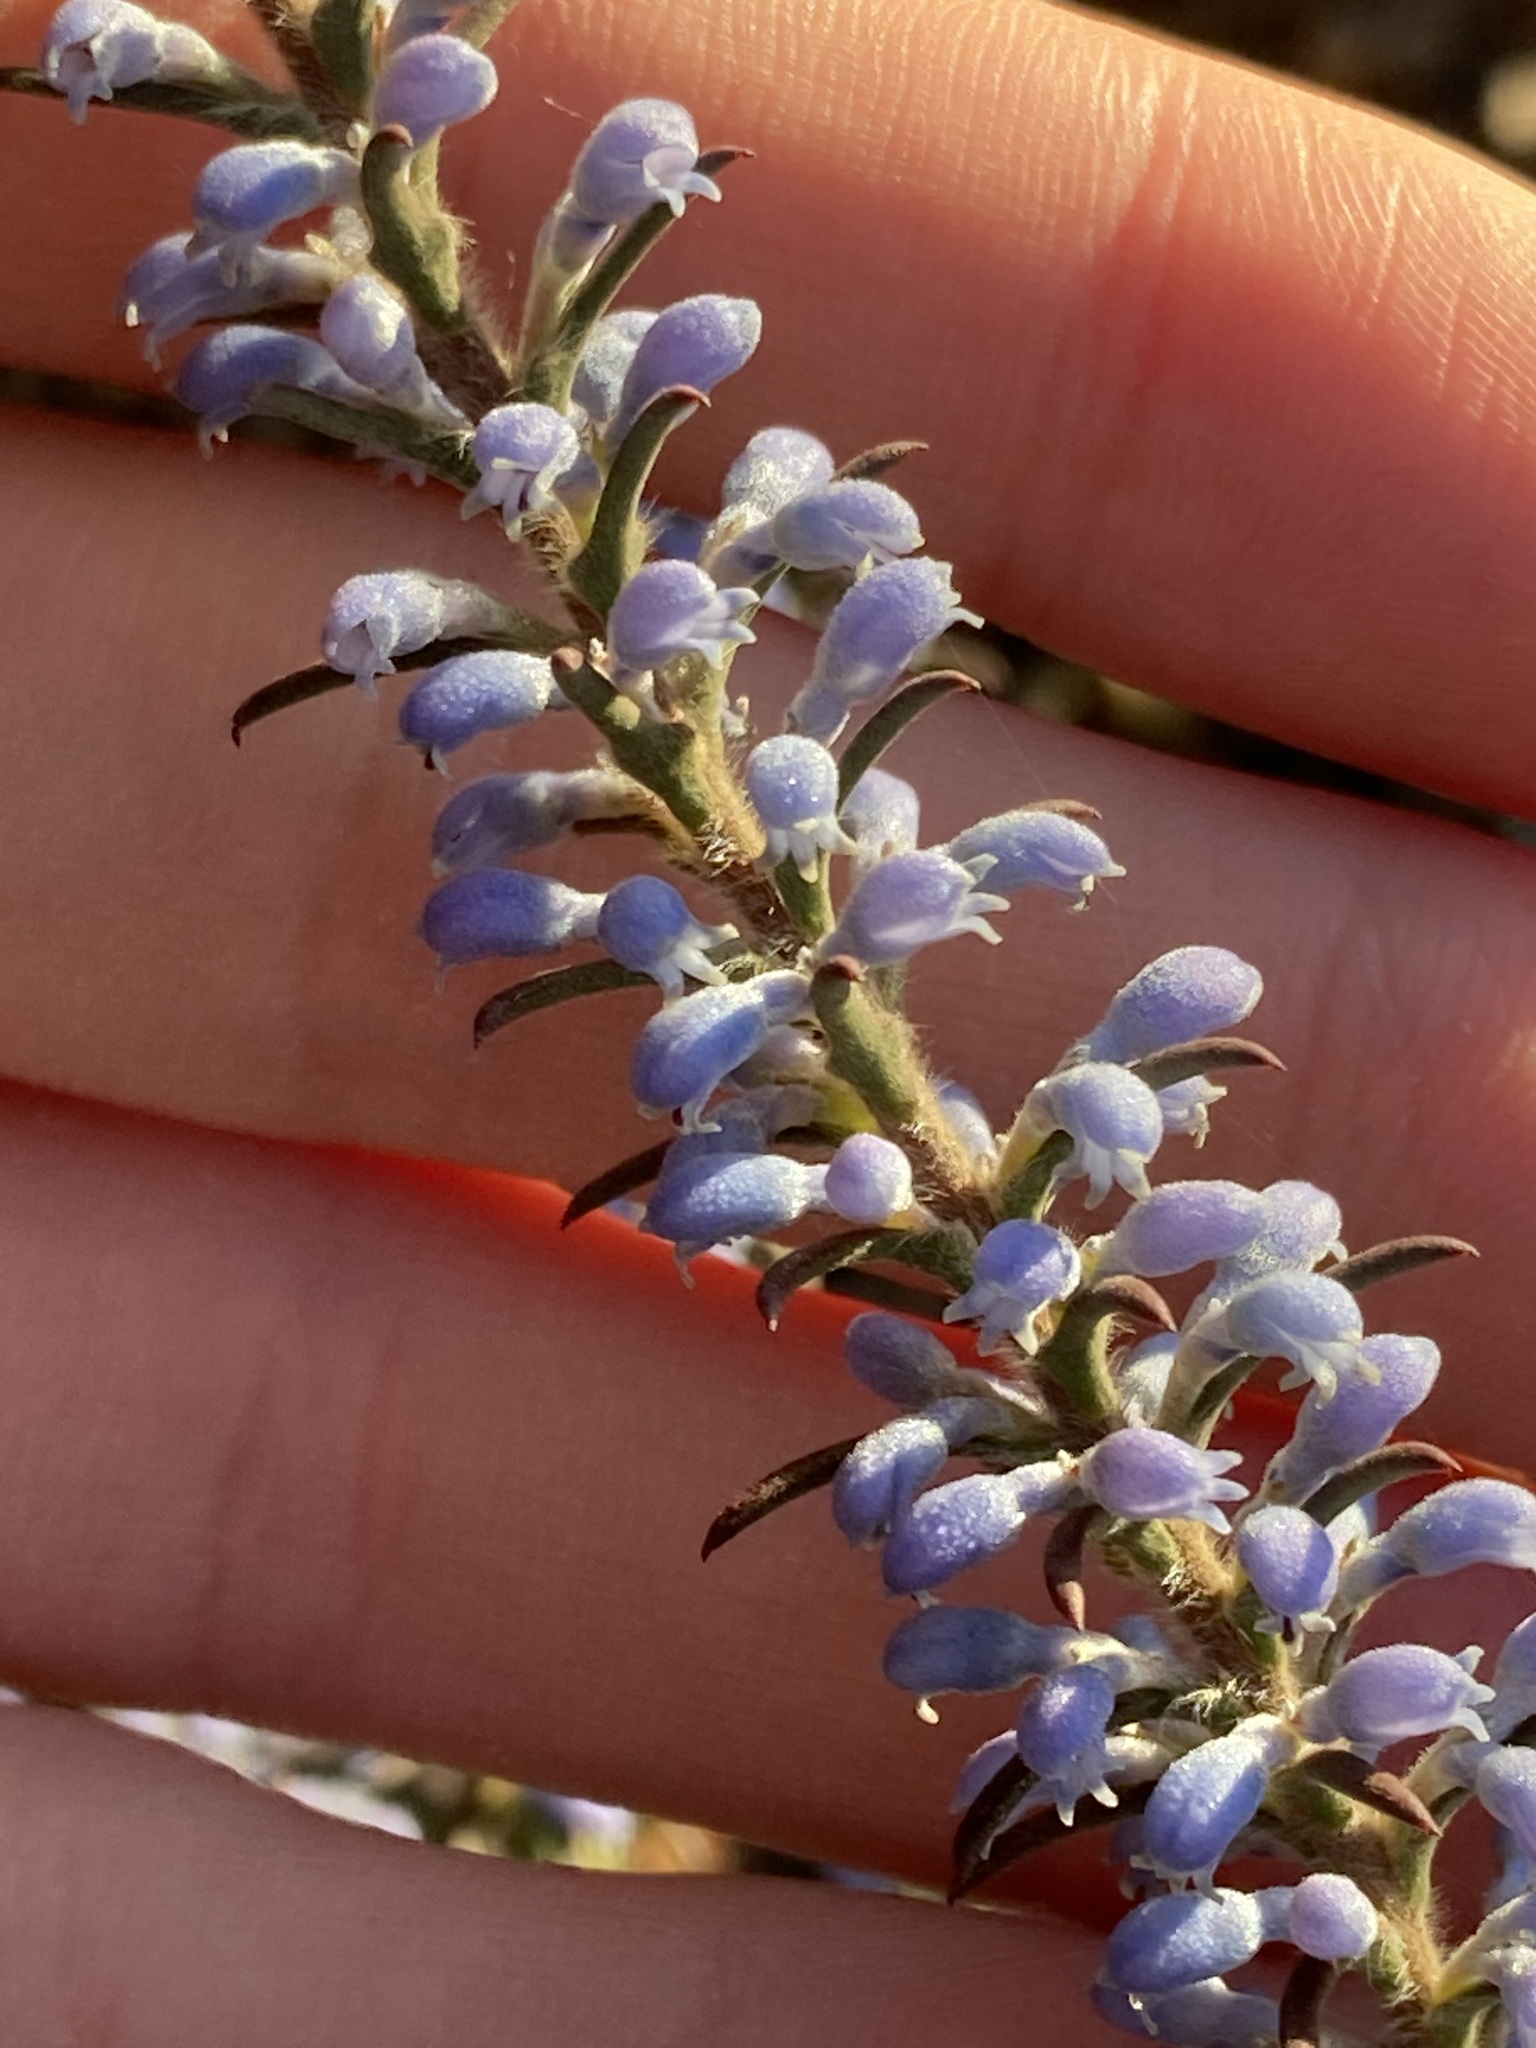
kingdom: Plantae
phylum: Tracheophyta
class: Magnoliopsida
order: Proteales
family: Proteaceae
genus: Conospermum
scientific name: Conospermum amoenum
